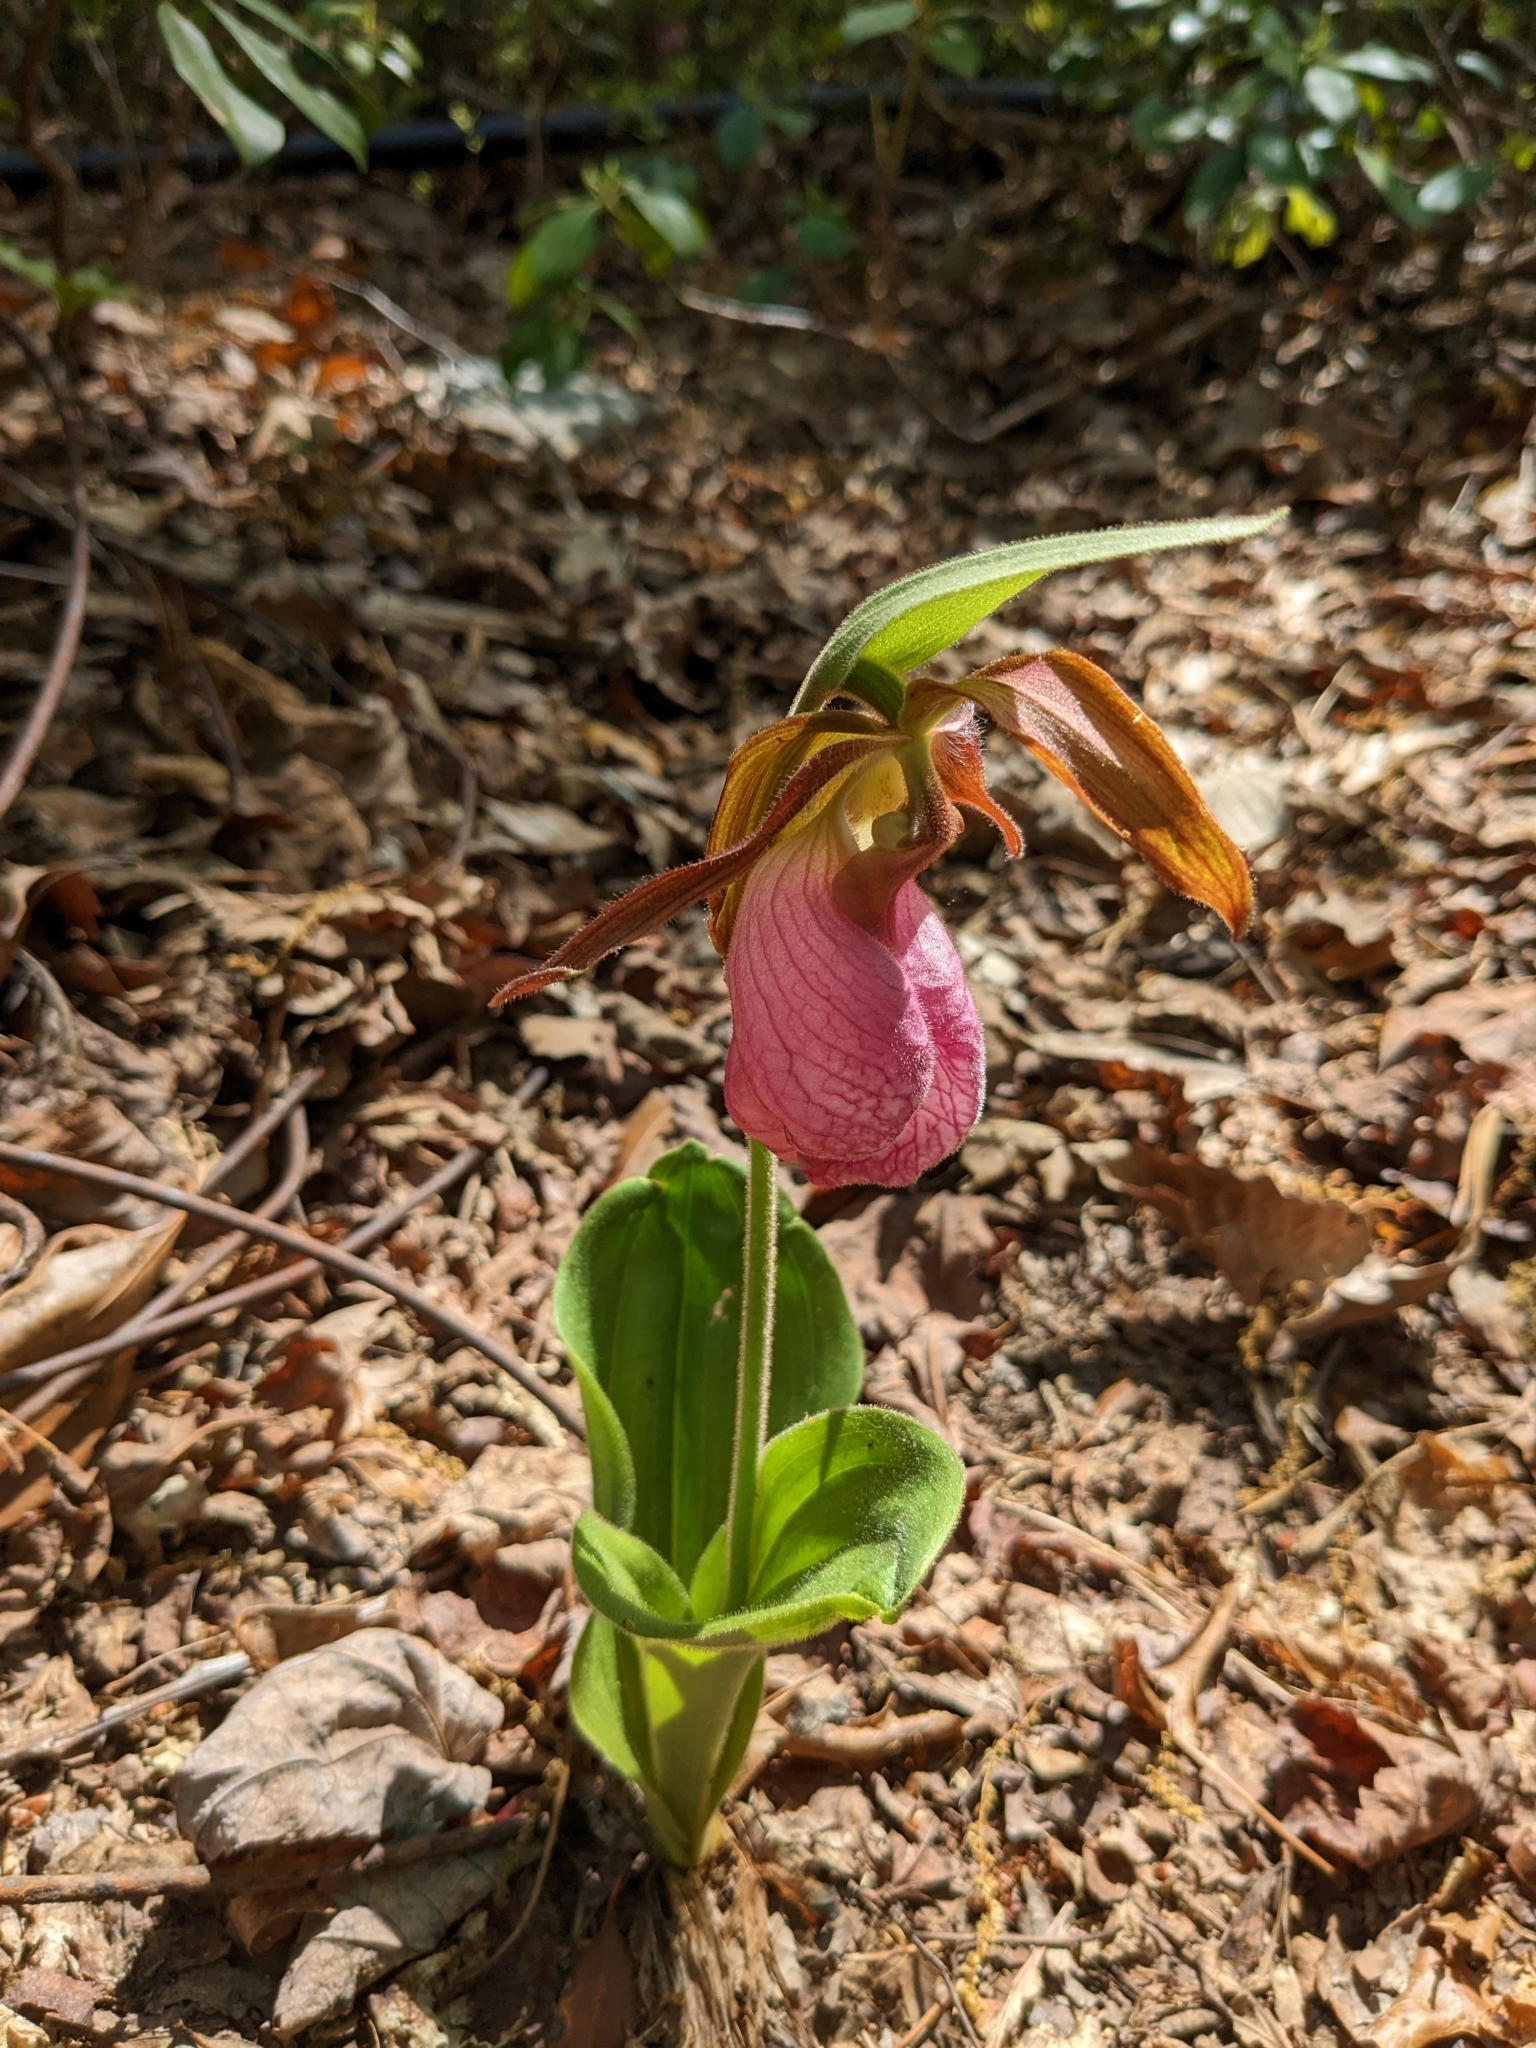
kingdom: Plantae
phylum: Tracheophyta
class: Liliopsida
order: Asparagales
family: Orchidaceae
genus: Cypripedium
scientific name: Cypripedium acaule
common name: Pink lady's-slipper
